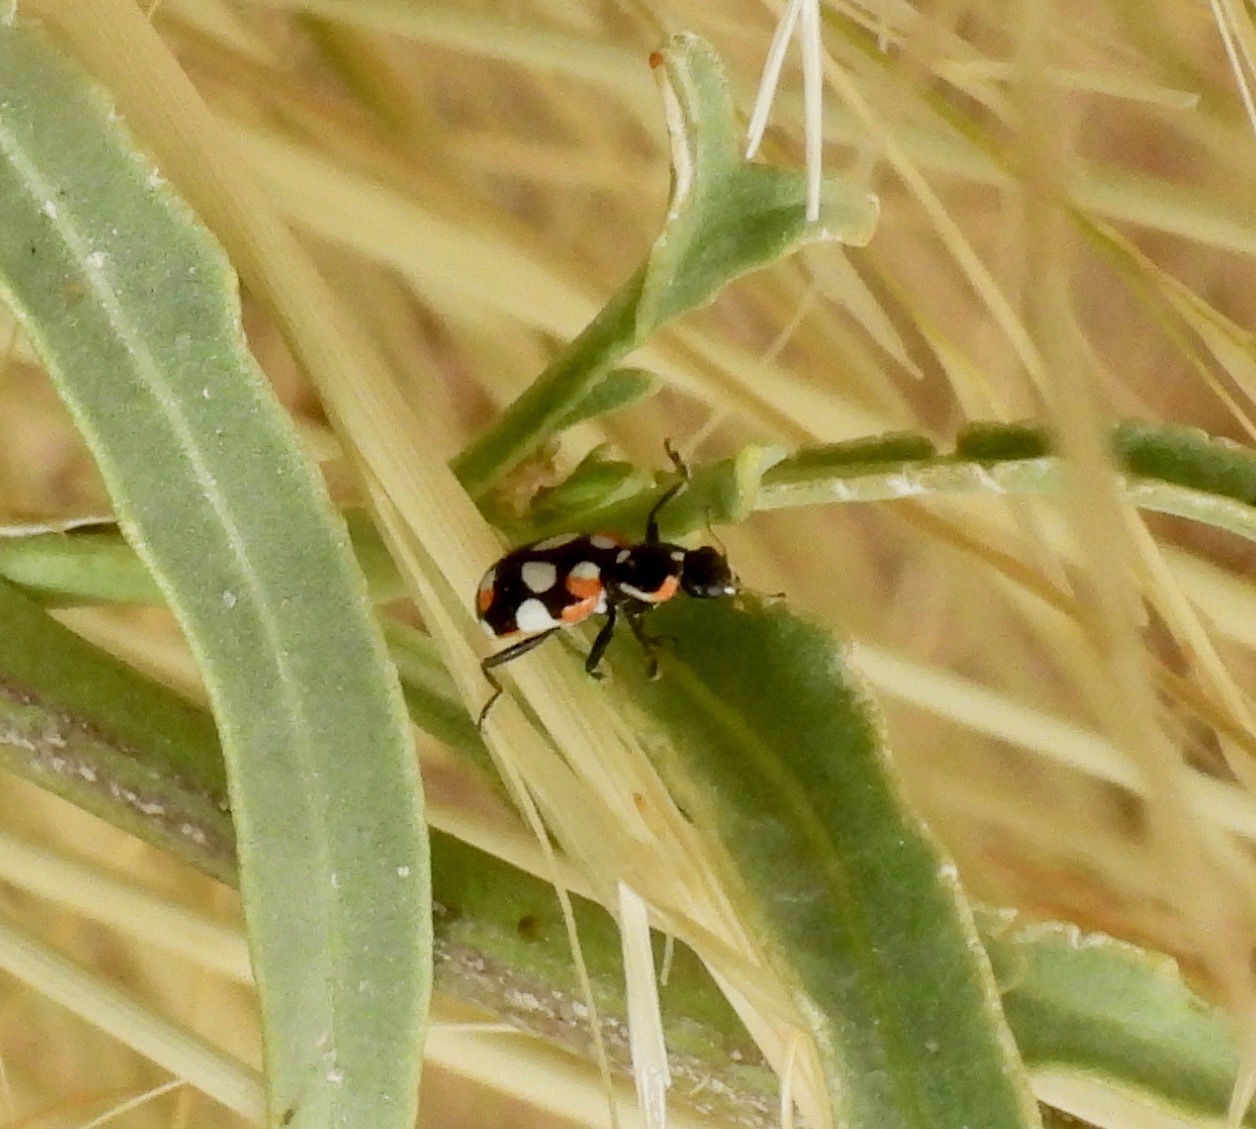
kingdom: Animalia
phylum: Arthropoda
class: Insecta
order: Coleoptera
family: Coccinellidae
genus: Eriopis
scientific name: Eriopis connexa
